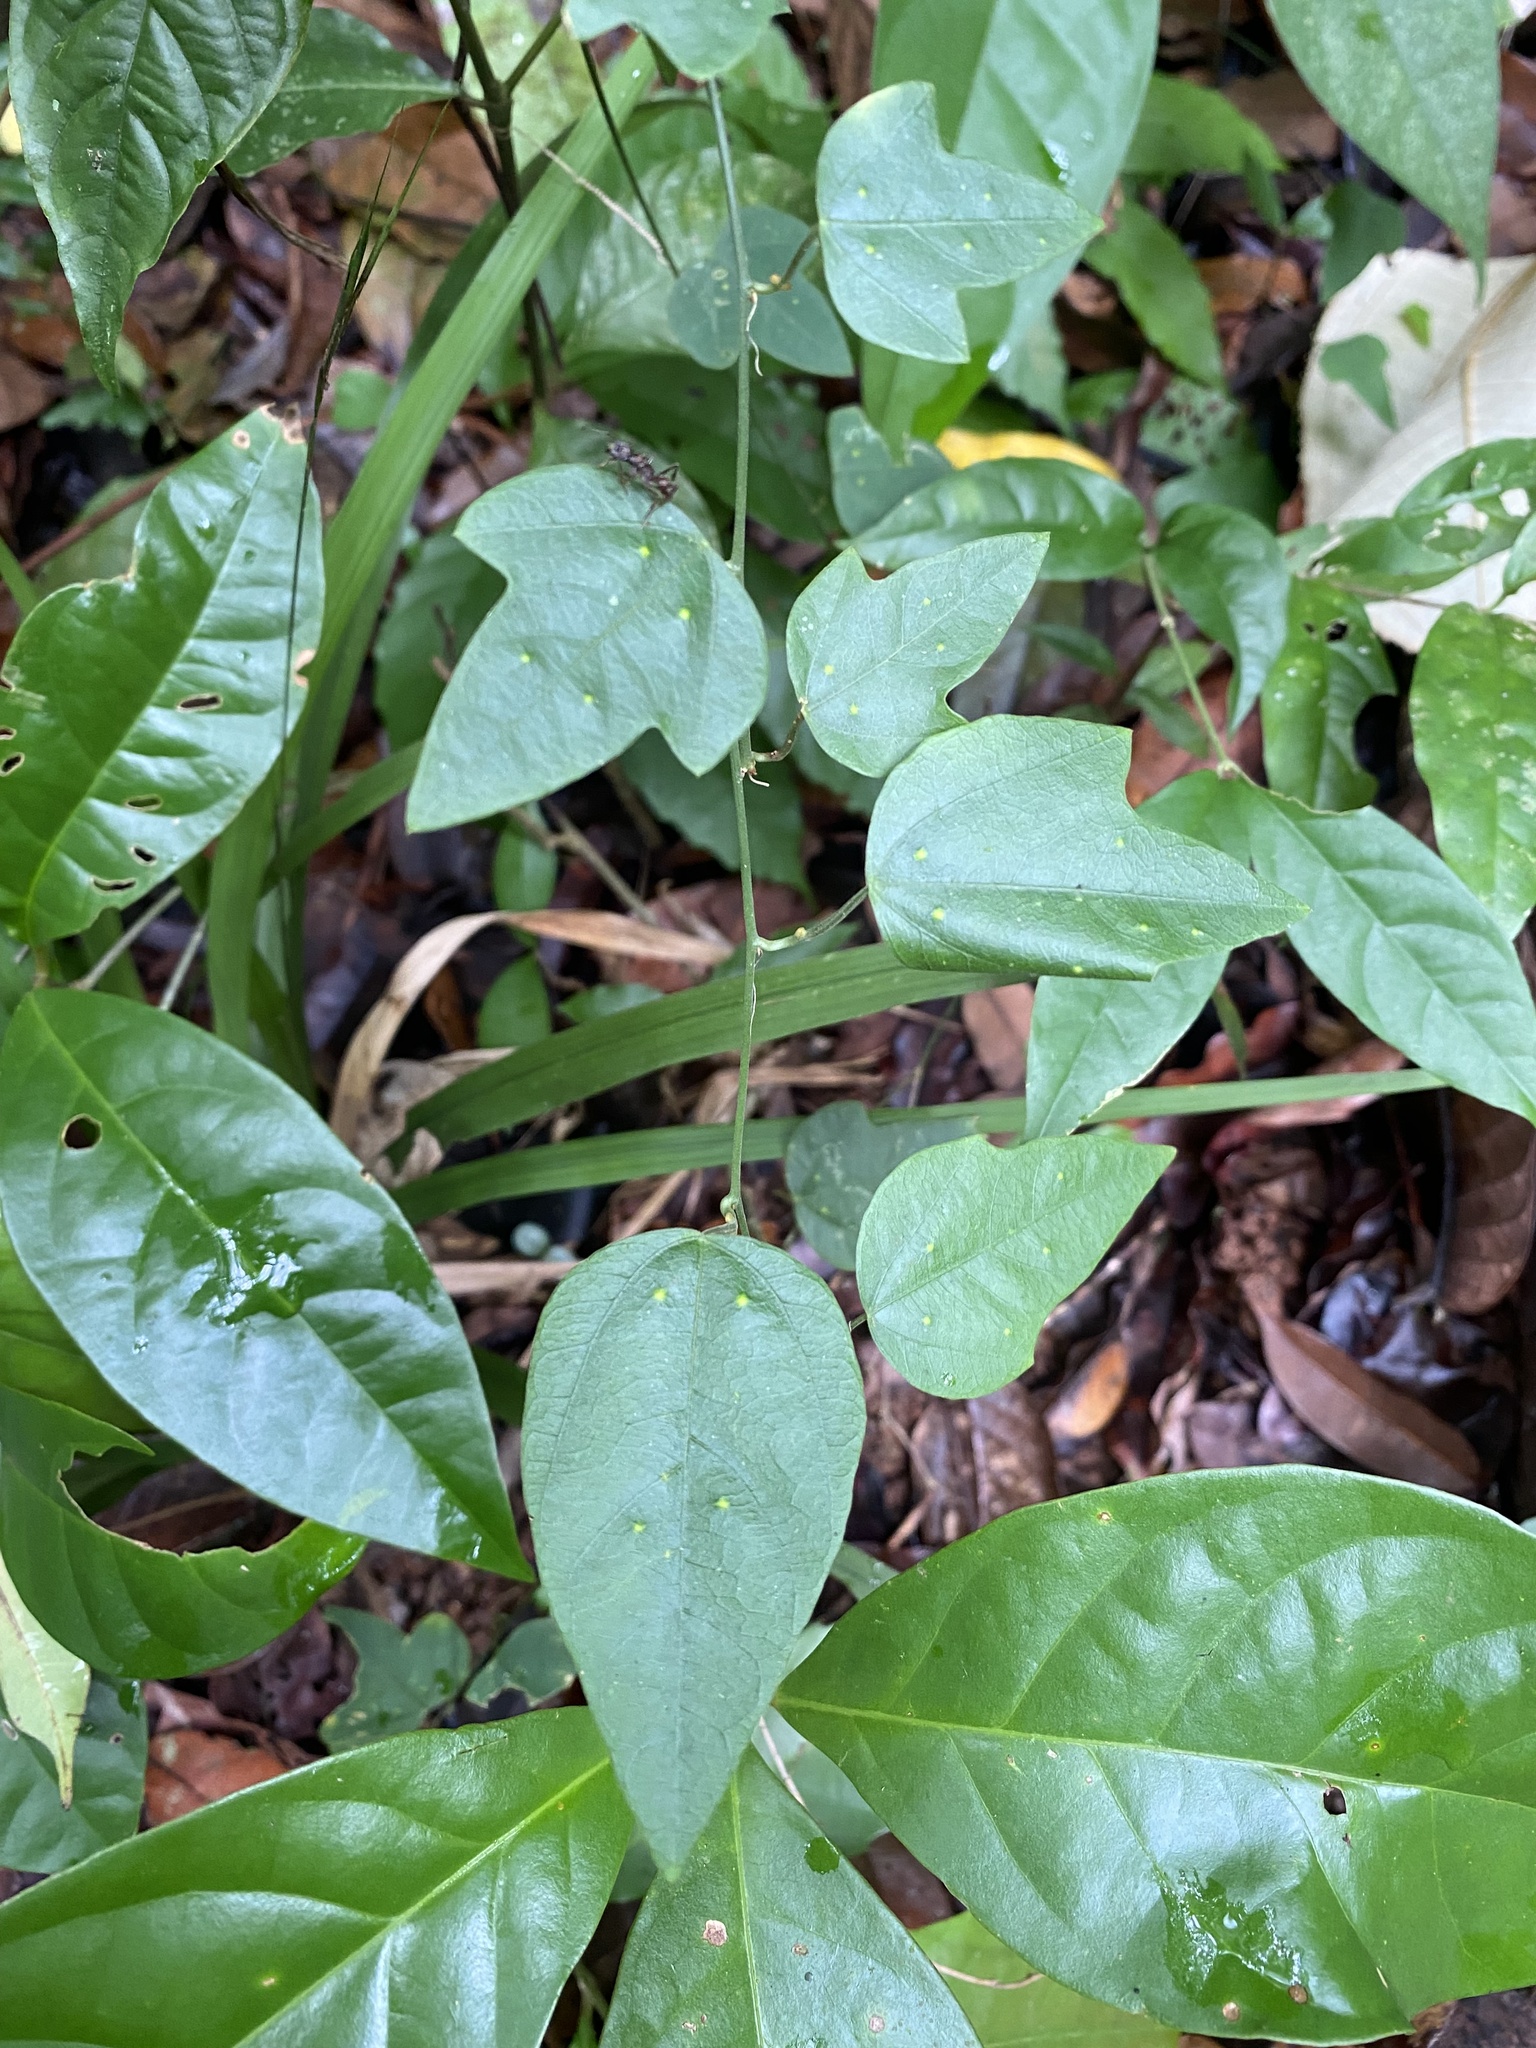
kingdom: Plantae
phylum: Tracheophyta
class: Magnoliopsida
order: Malpighiales
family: Passifloraceae
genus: Passiflora
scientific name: Passiflora auriculata
